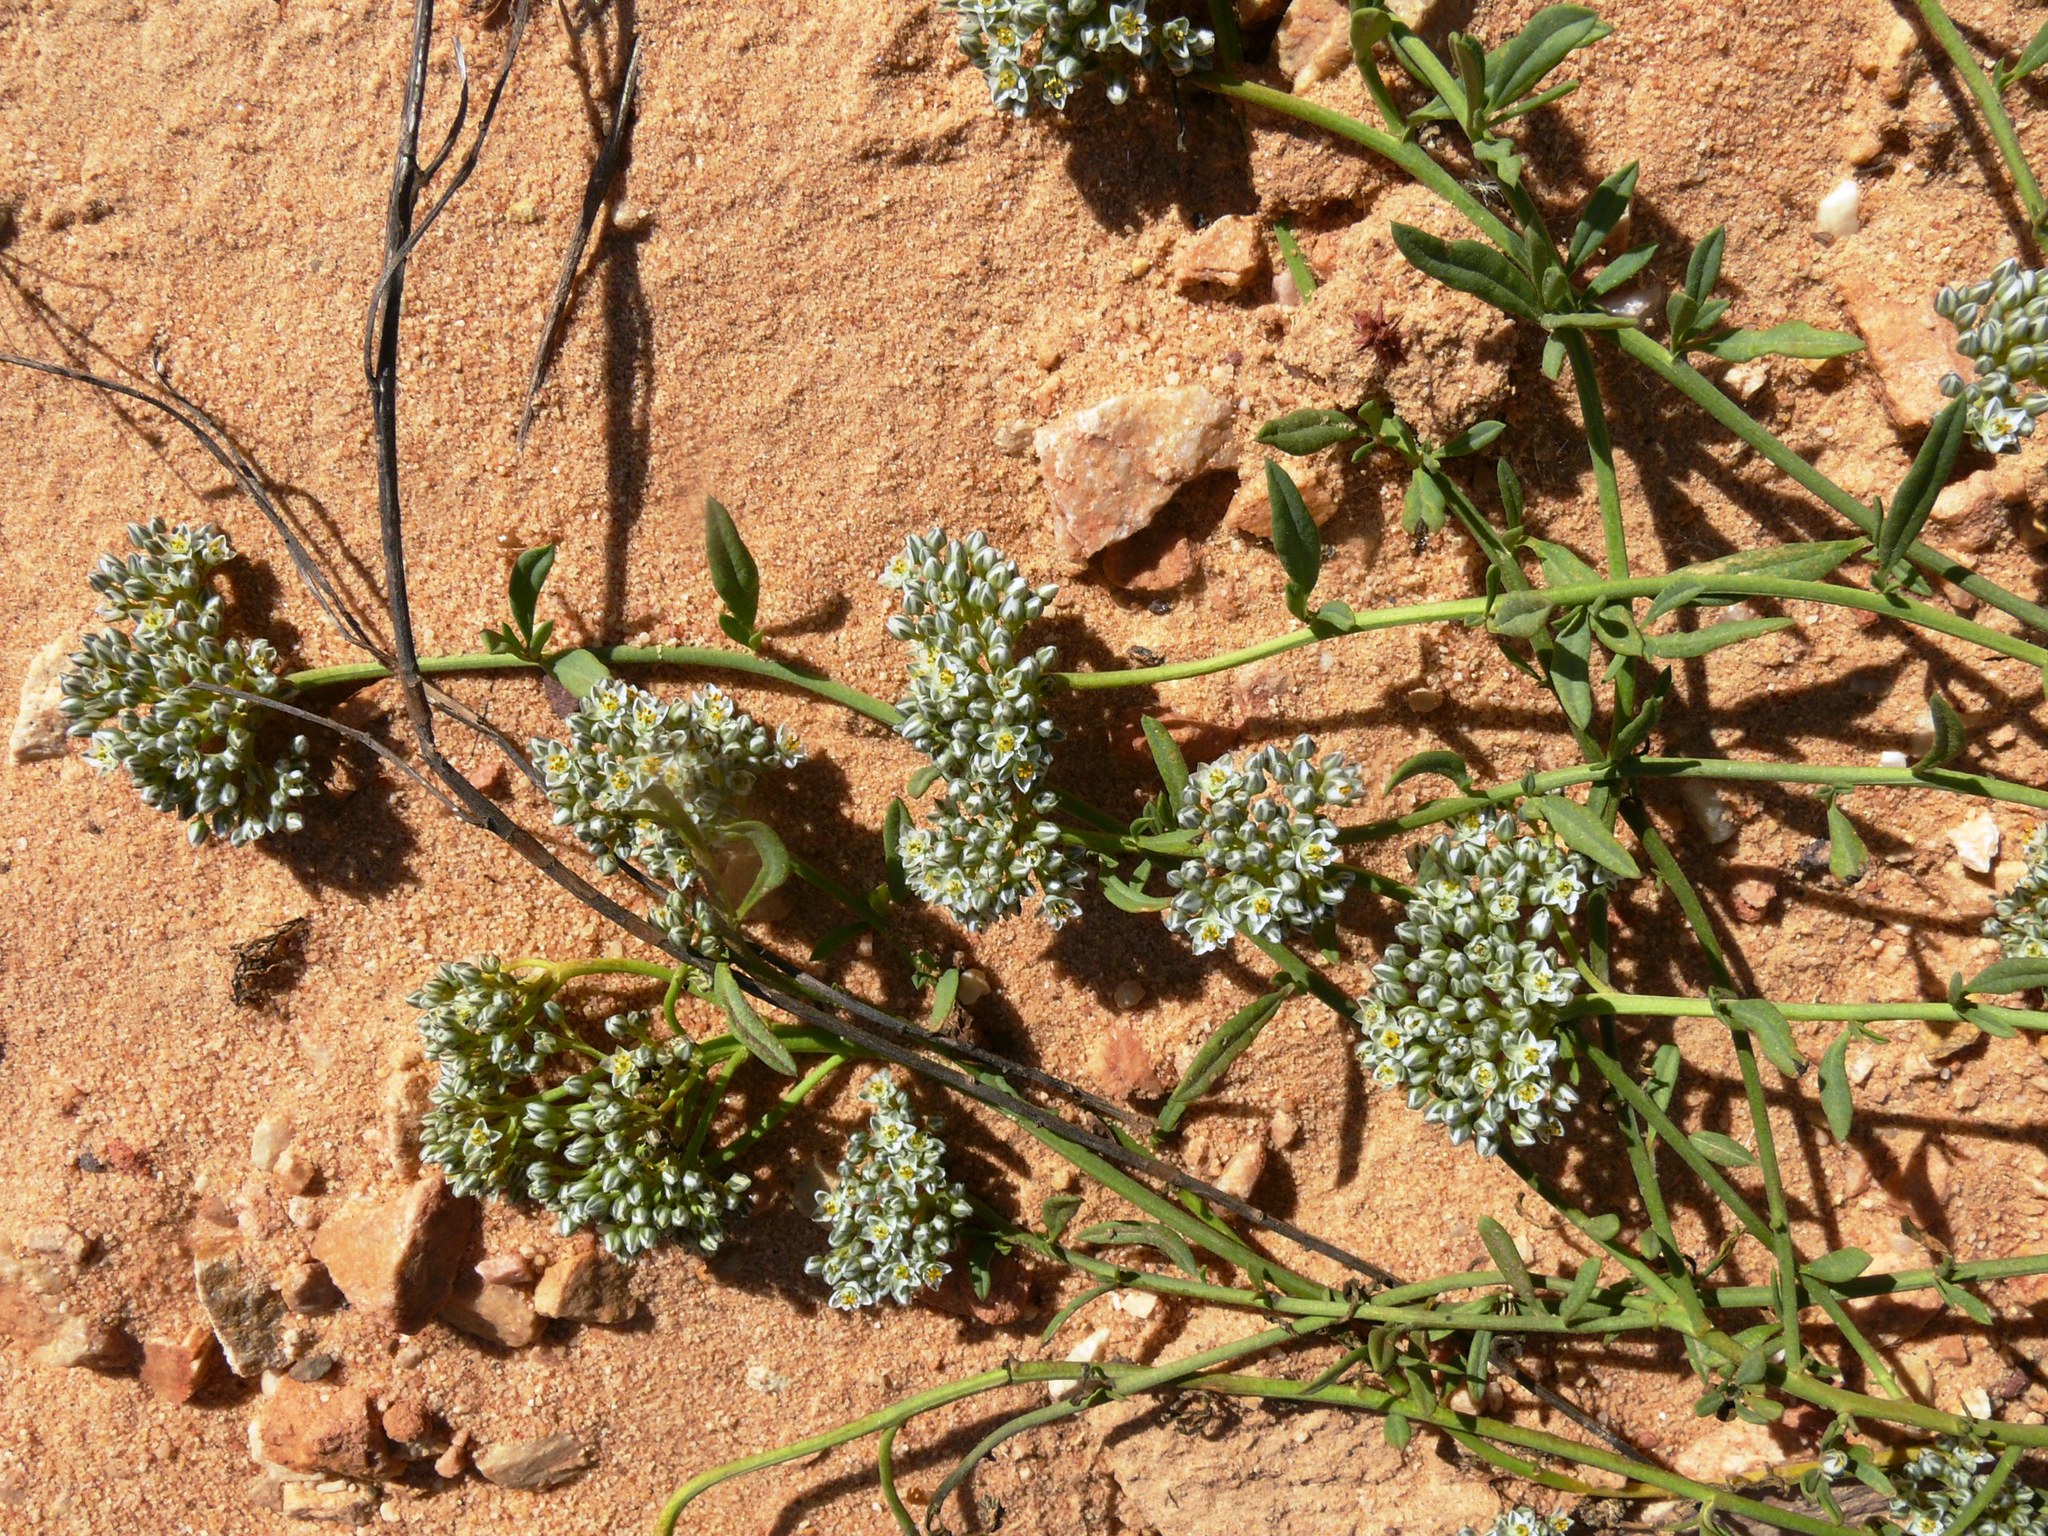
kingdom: Plantae
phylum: Tracheophyta
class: Magnoliopsida
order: Caryophyllales
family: Limeaceae
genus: Limeum
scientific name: Limeum africanum
